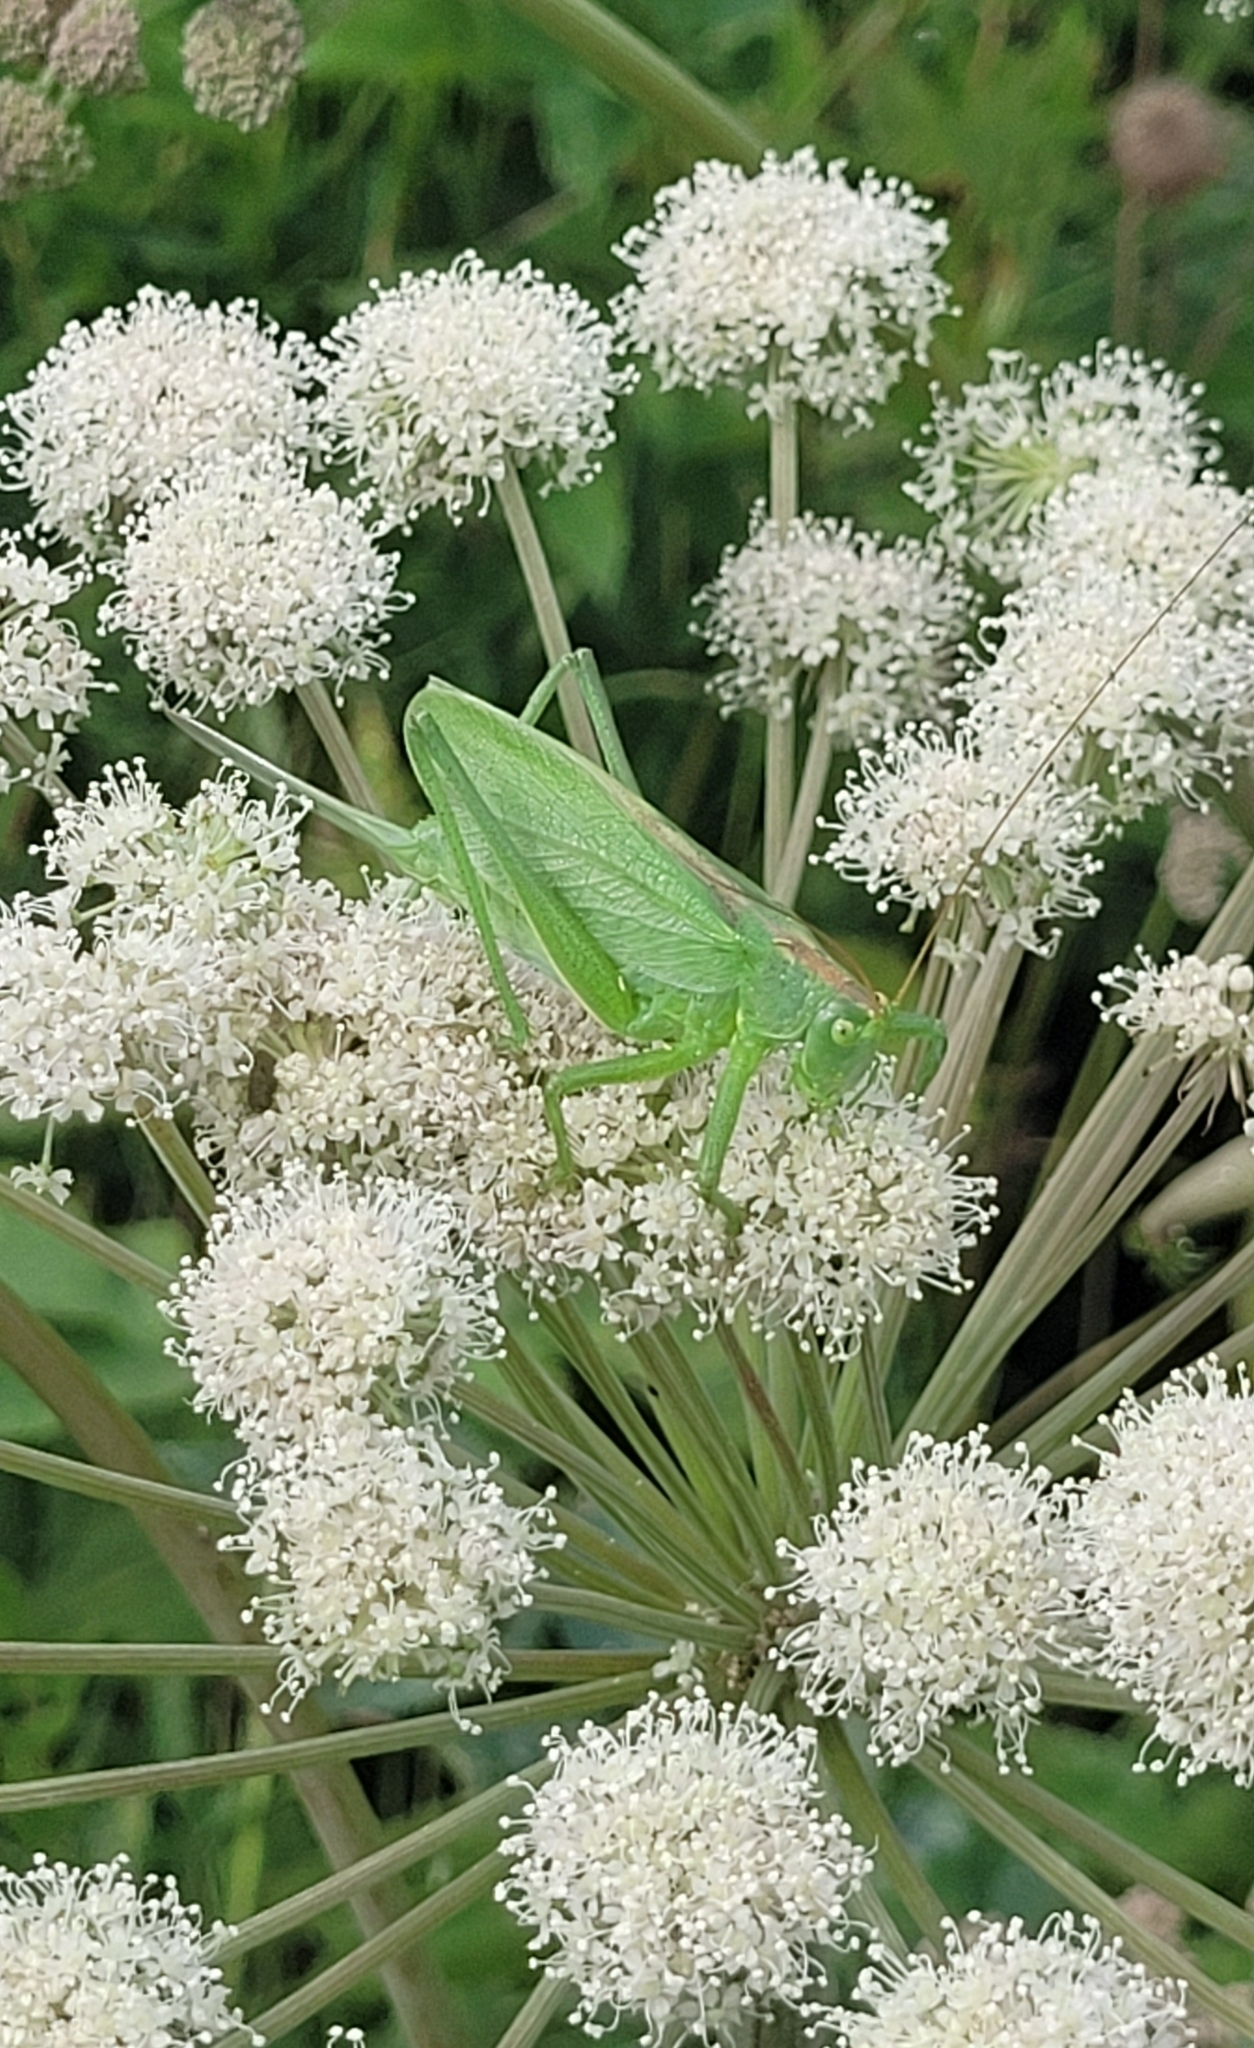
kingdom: Animalia
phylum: Arthropoda
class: Insecta
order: Orthoptera
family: Tettigoniidae
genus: Tettigonia
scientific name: Tettigonia cantans
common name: Upland green bush-cricket
